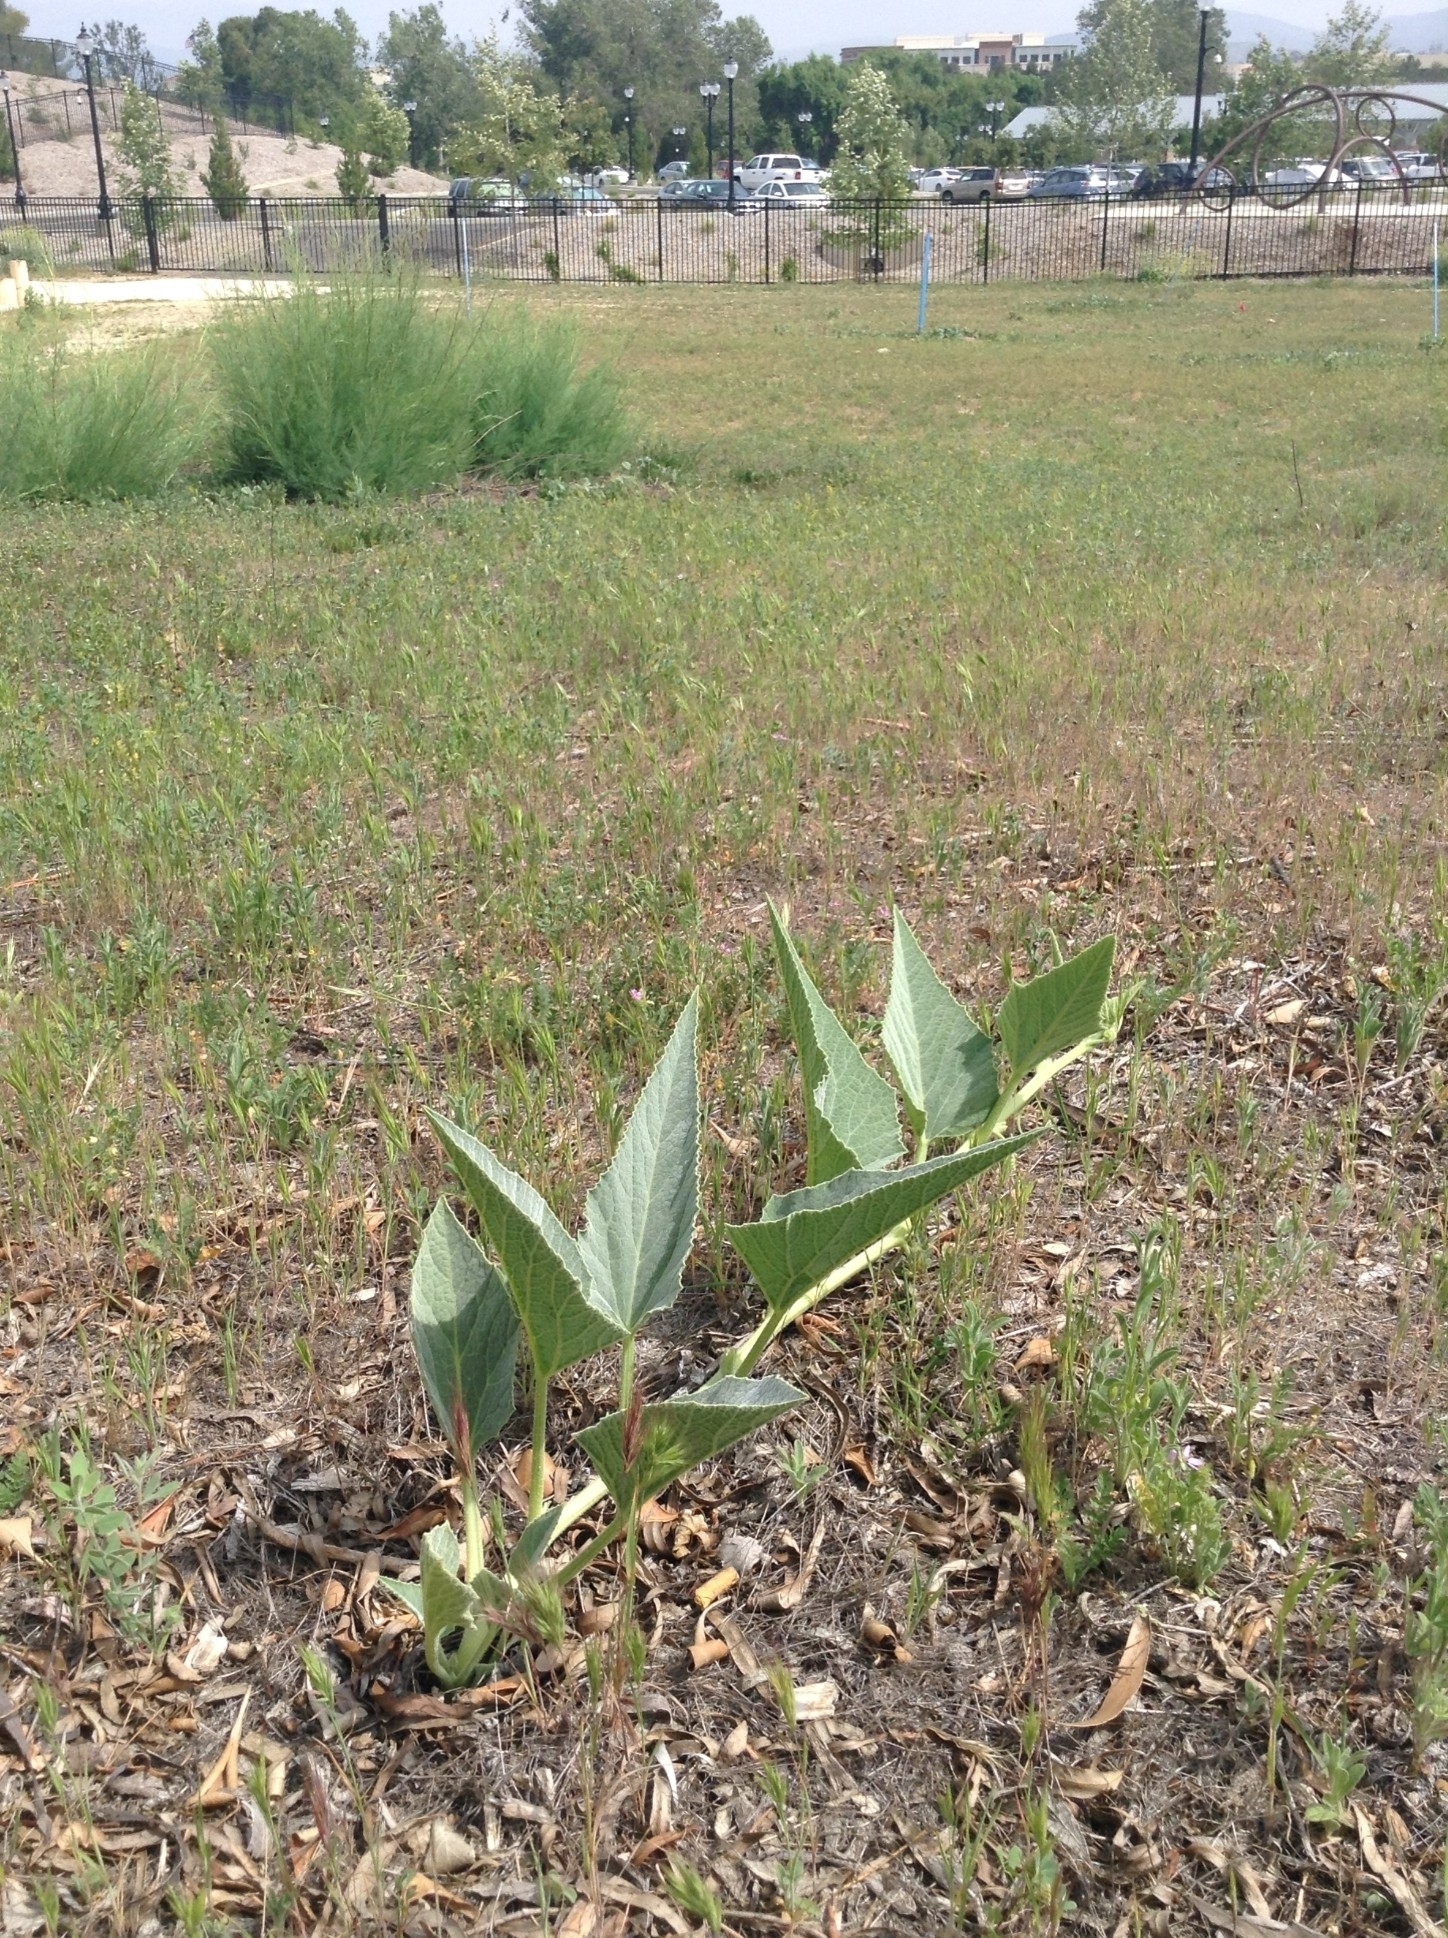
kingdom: Plantae
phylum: Tracheophyta
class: Magnoliopsida
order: Cucurbitales
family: Cucurbitaceae
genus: Cucurbita
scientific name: Cucurbita foetidissima
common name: Buffalo gourd
